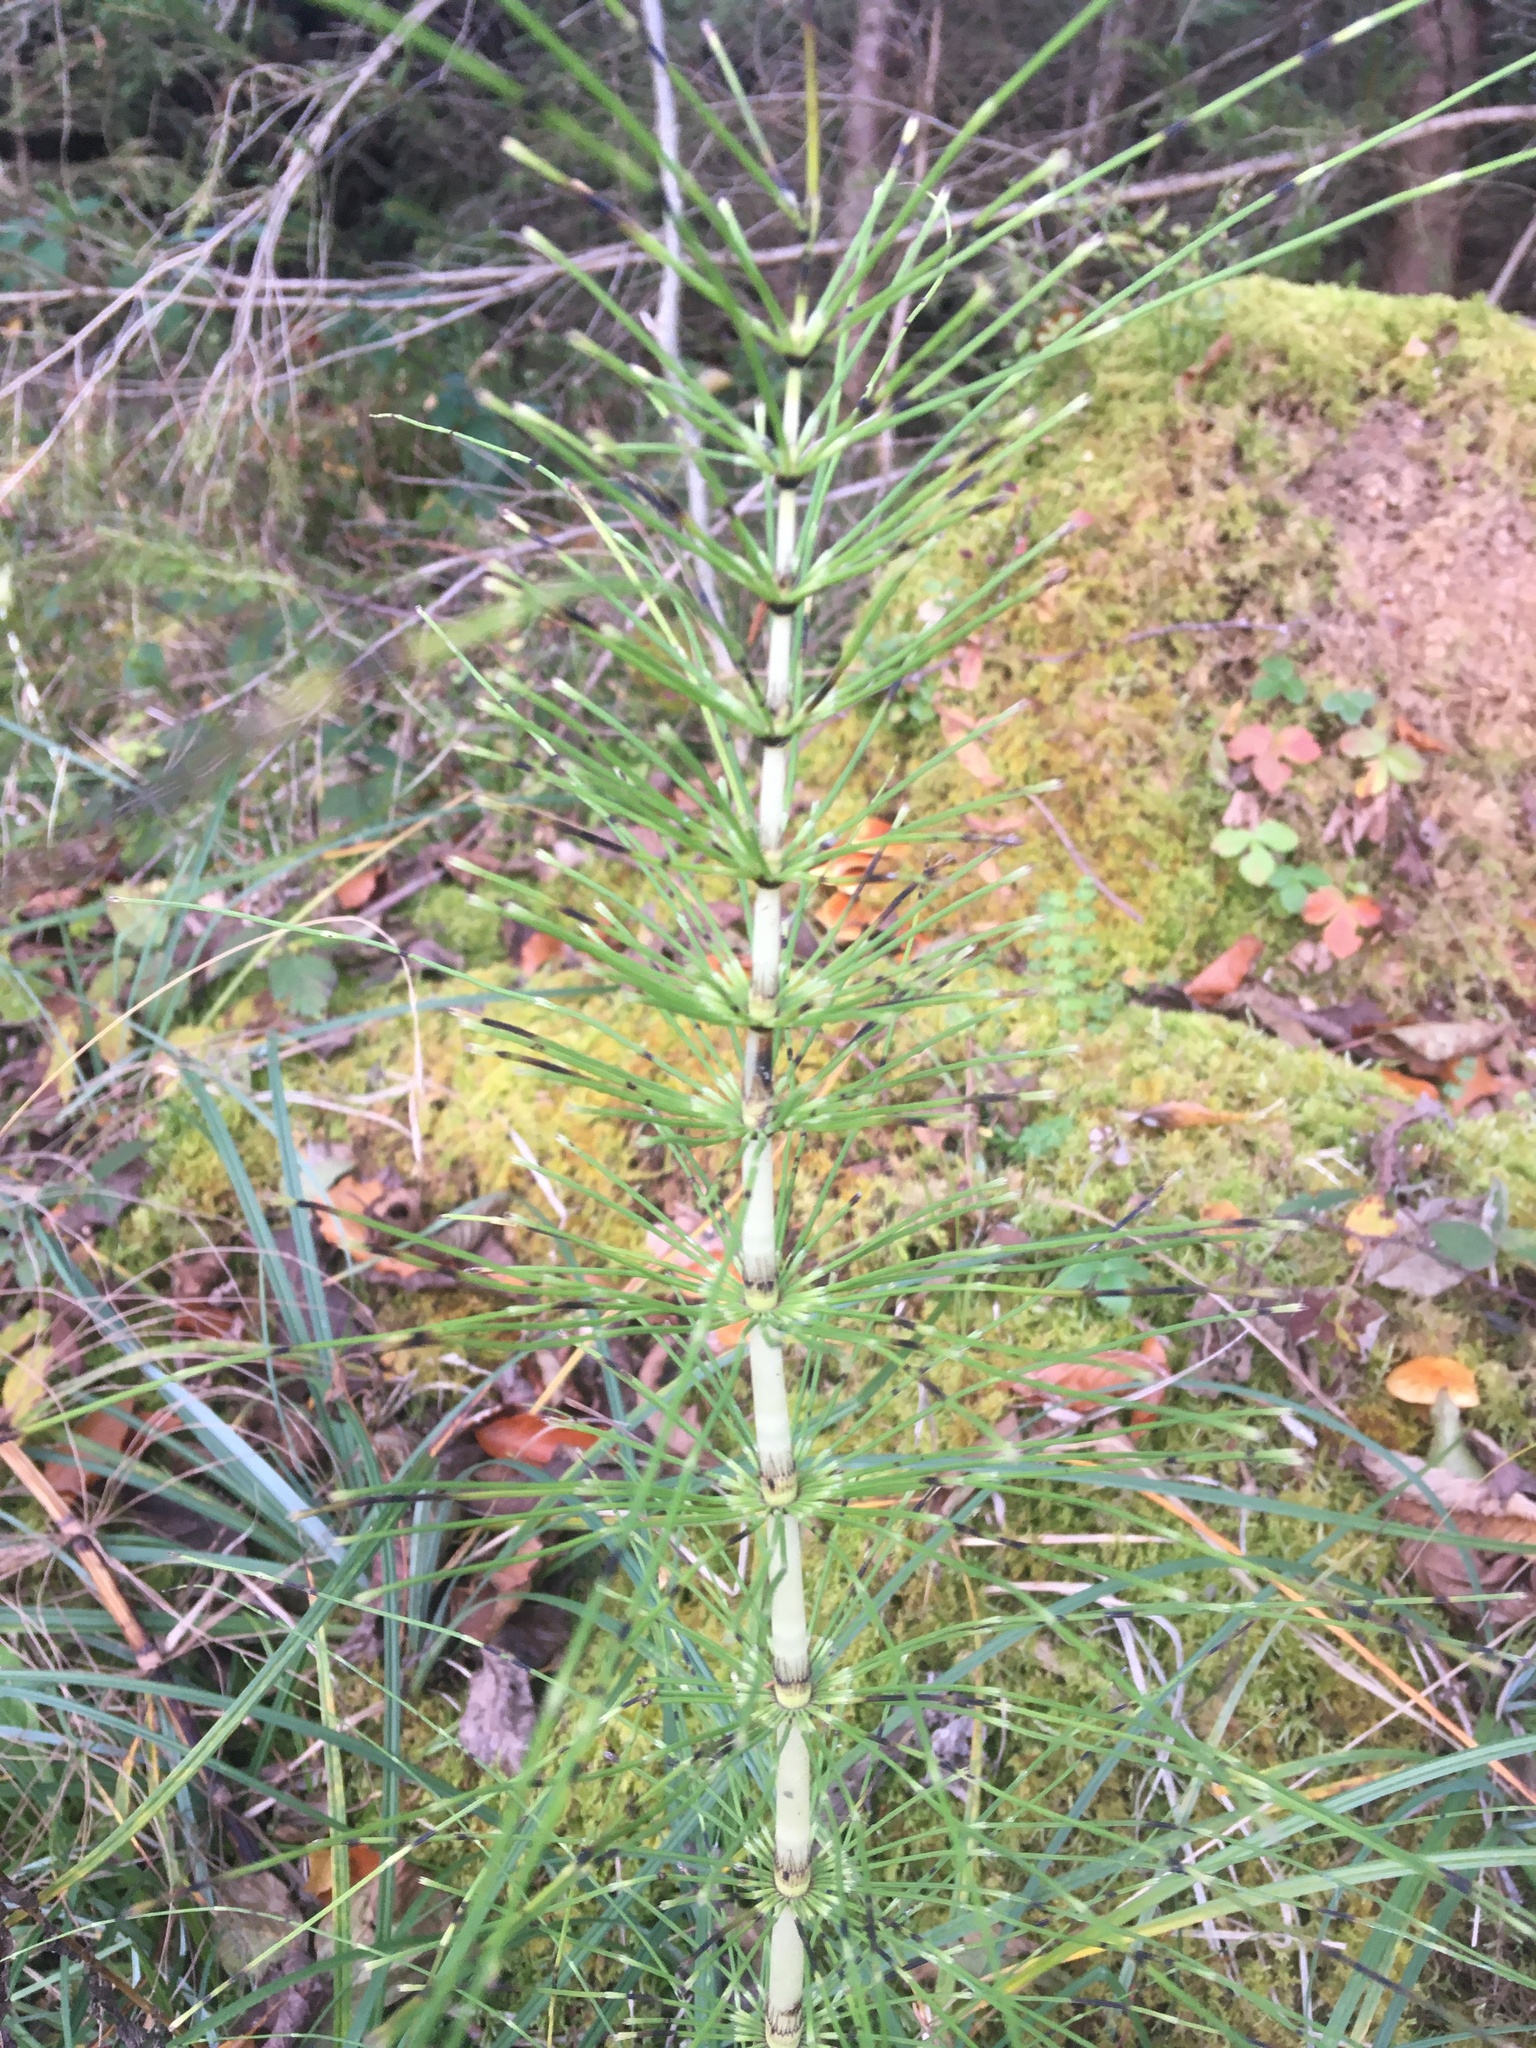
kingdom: Plantae
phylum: Tracheophyta
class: Polypodiopsida
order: Equisetales
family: Equisetaceae
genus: Equisetum
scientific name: Equisetum telmateia
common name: Great horsetail
